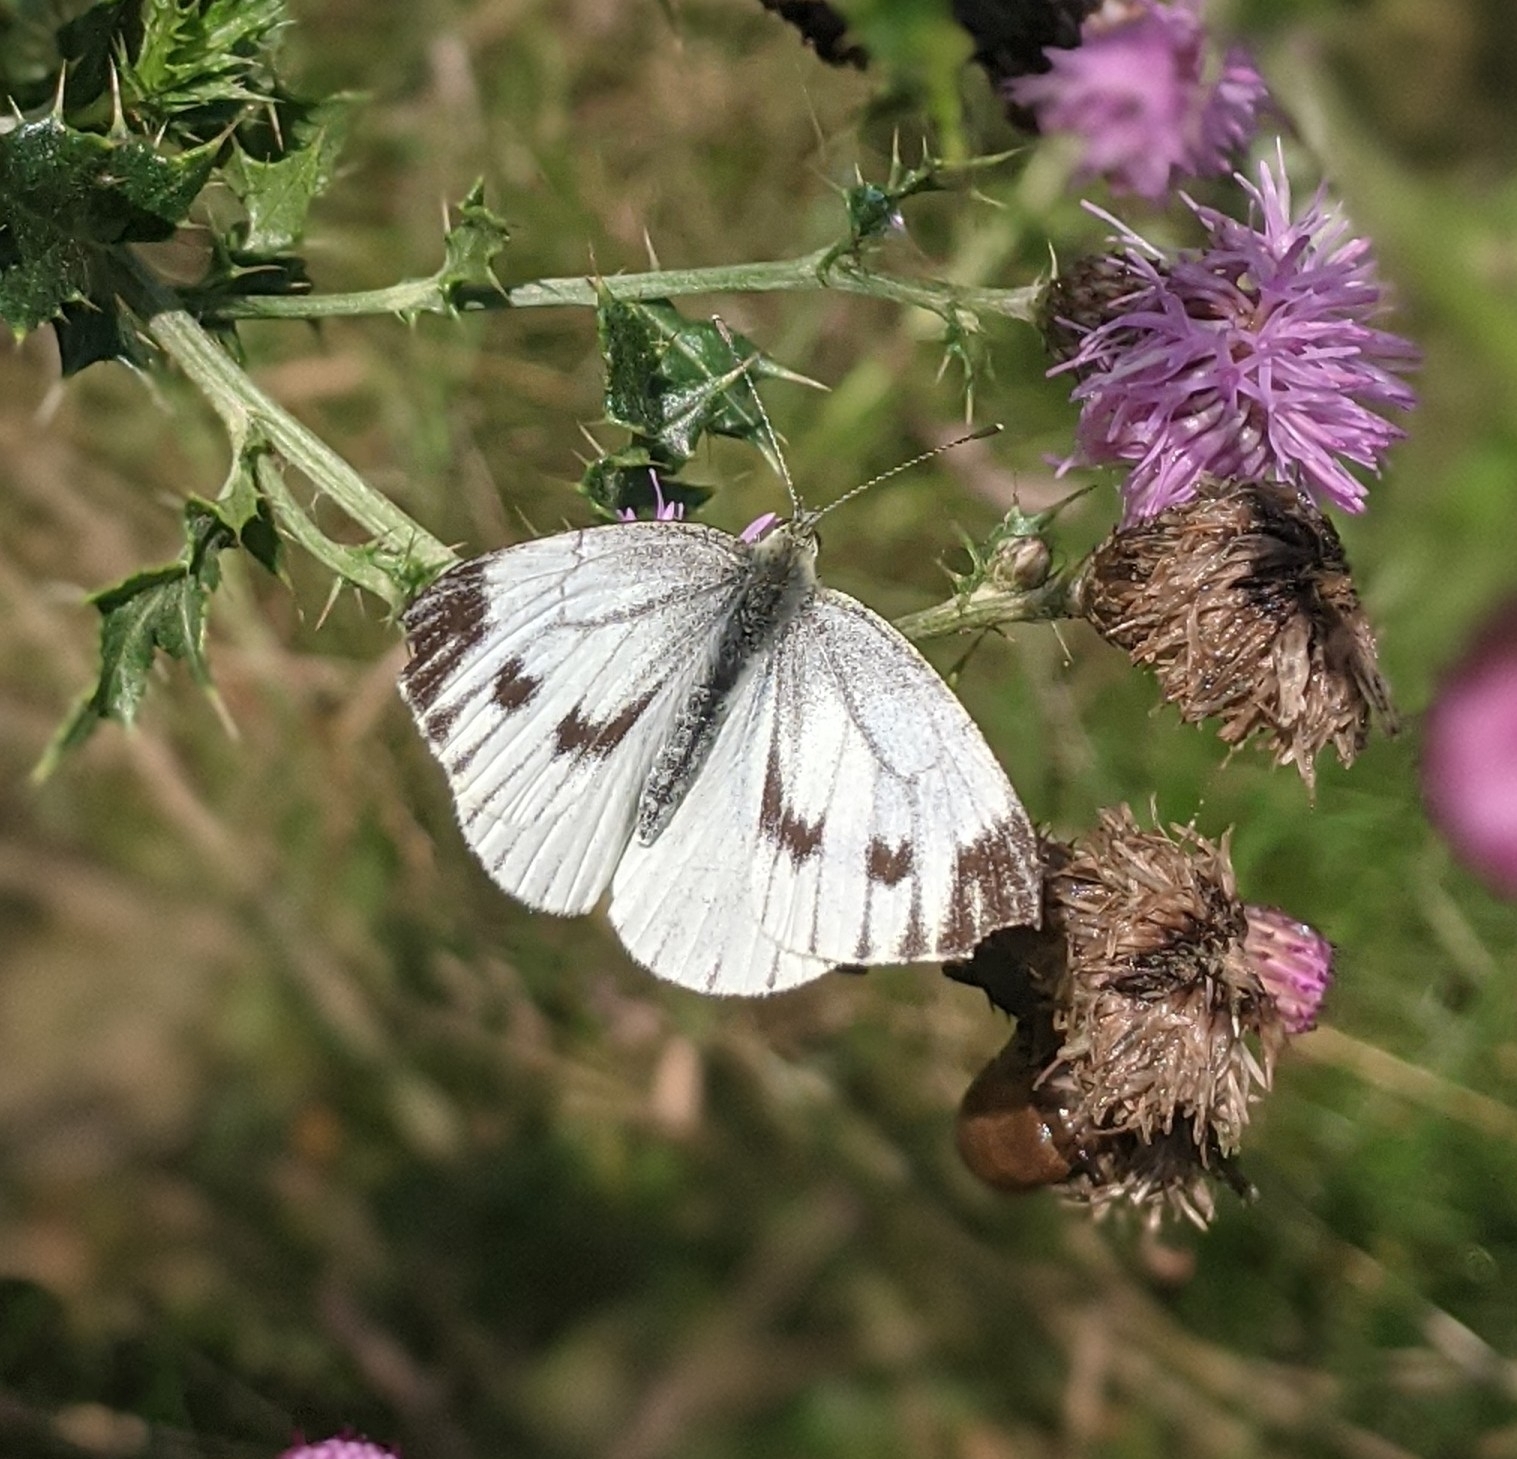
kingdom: Animalia
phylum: Arthropoda
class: Insecta
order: Lepidoptera
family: Pieridae
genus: Pieris
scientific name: Pieris napi
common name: Green-veined white
